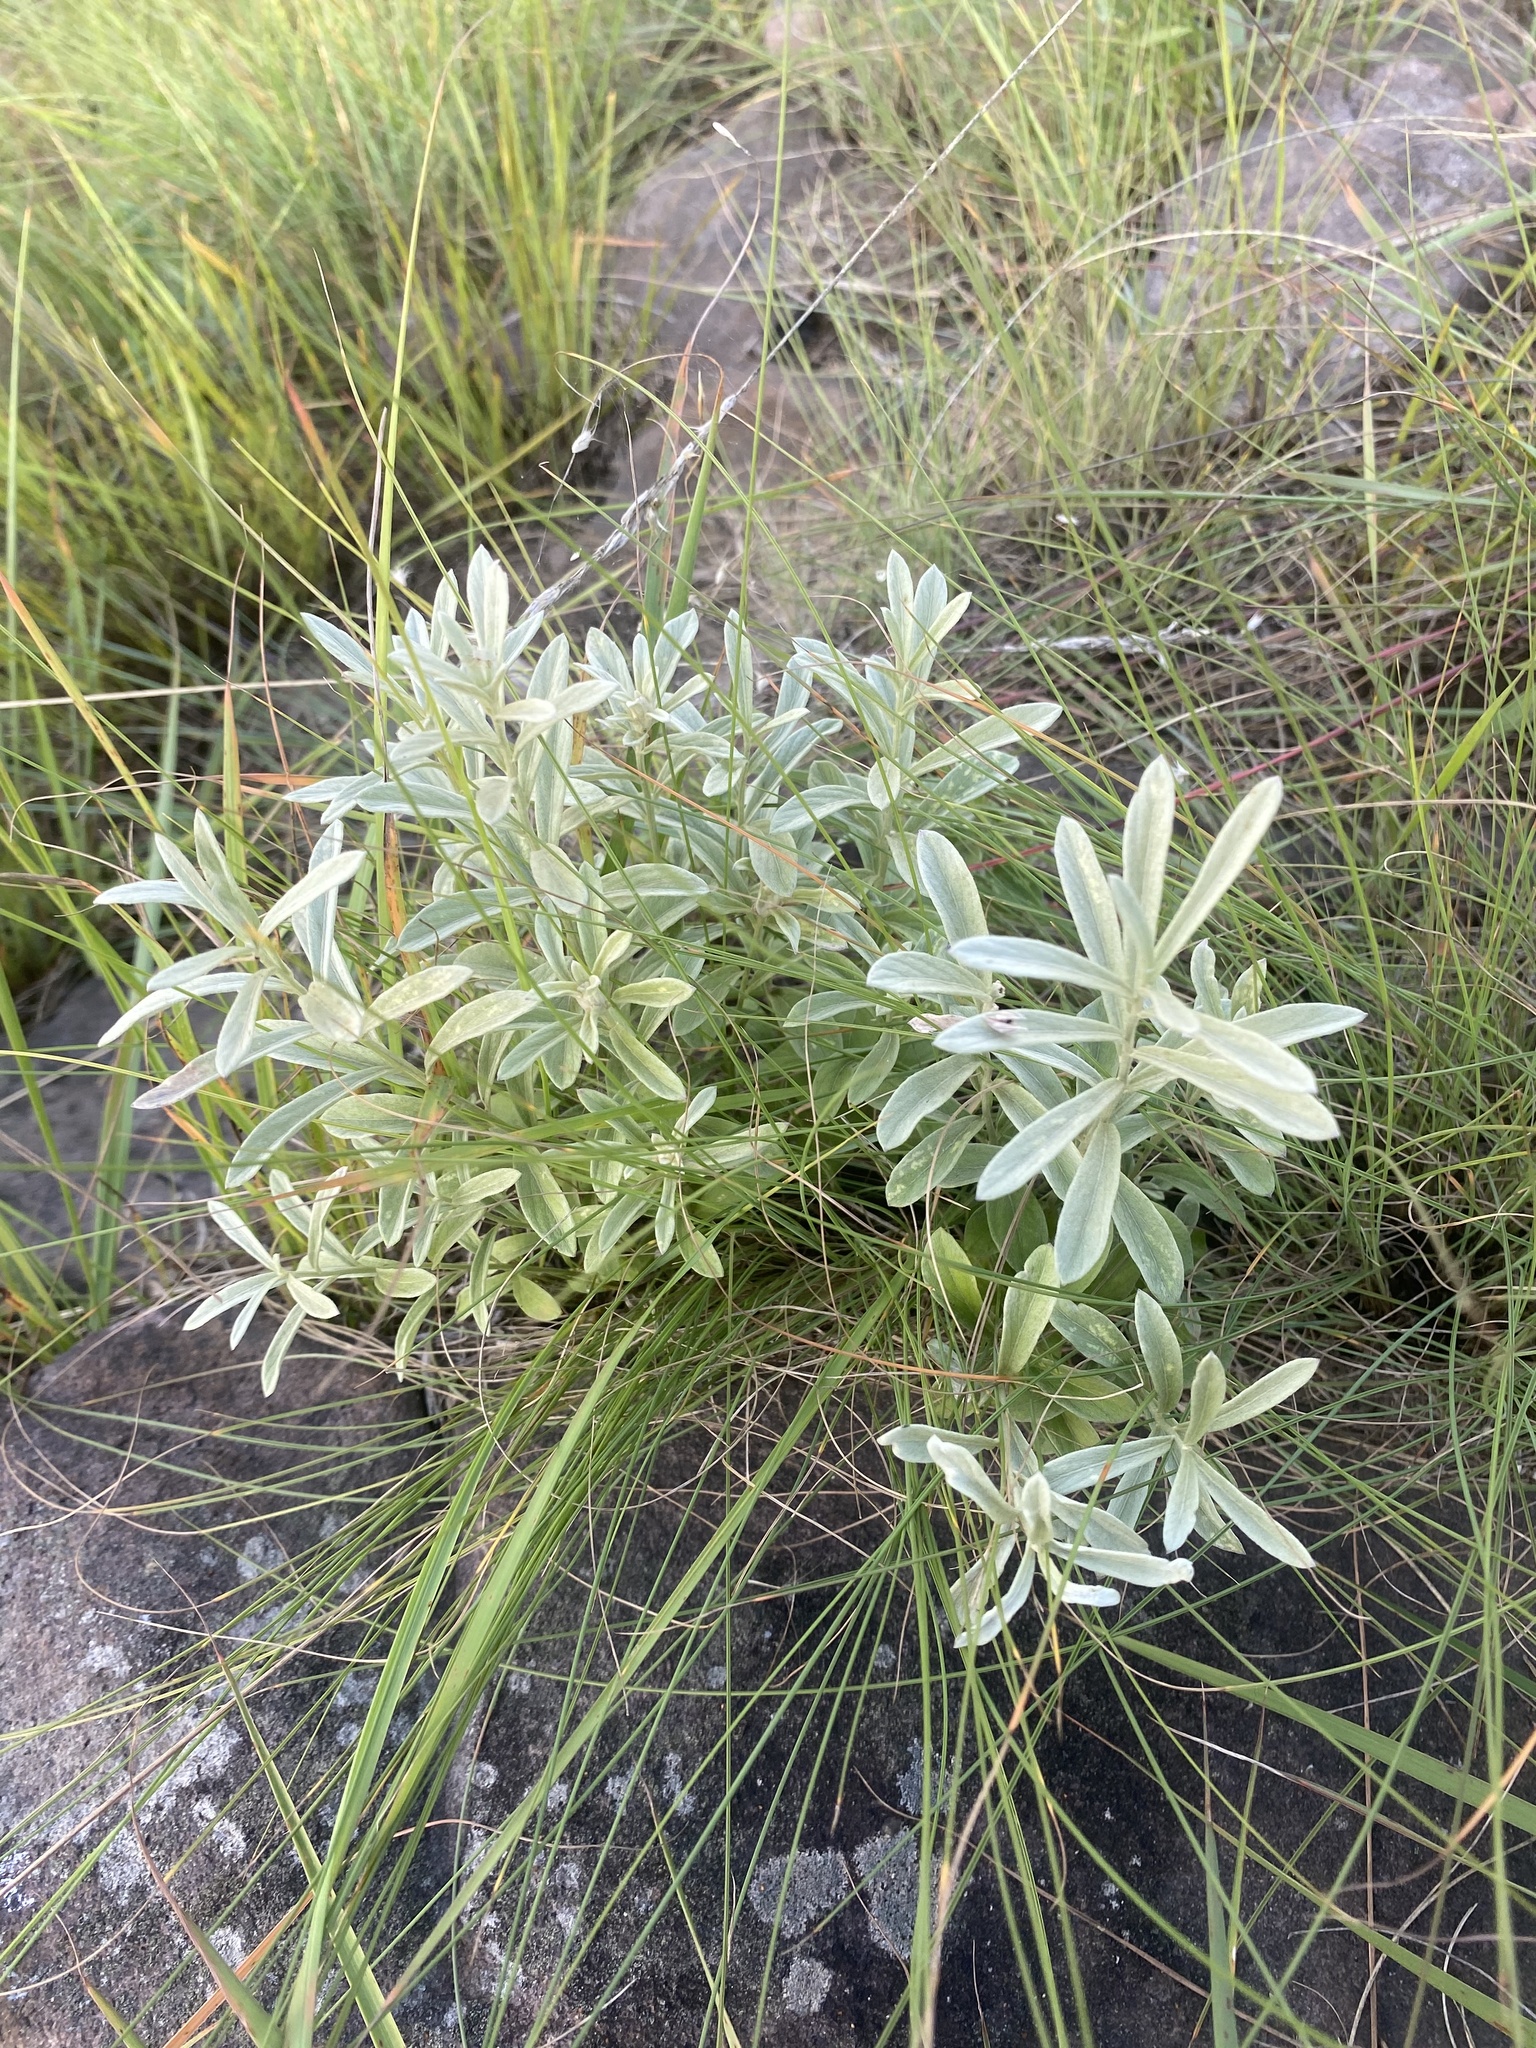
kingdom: Plantae
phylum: Tracheophyta
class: Magnoliopsida
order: Asterales
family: Asteraceae
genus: Hilliardiella
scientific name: Hilliardiella aristata
